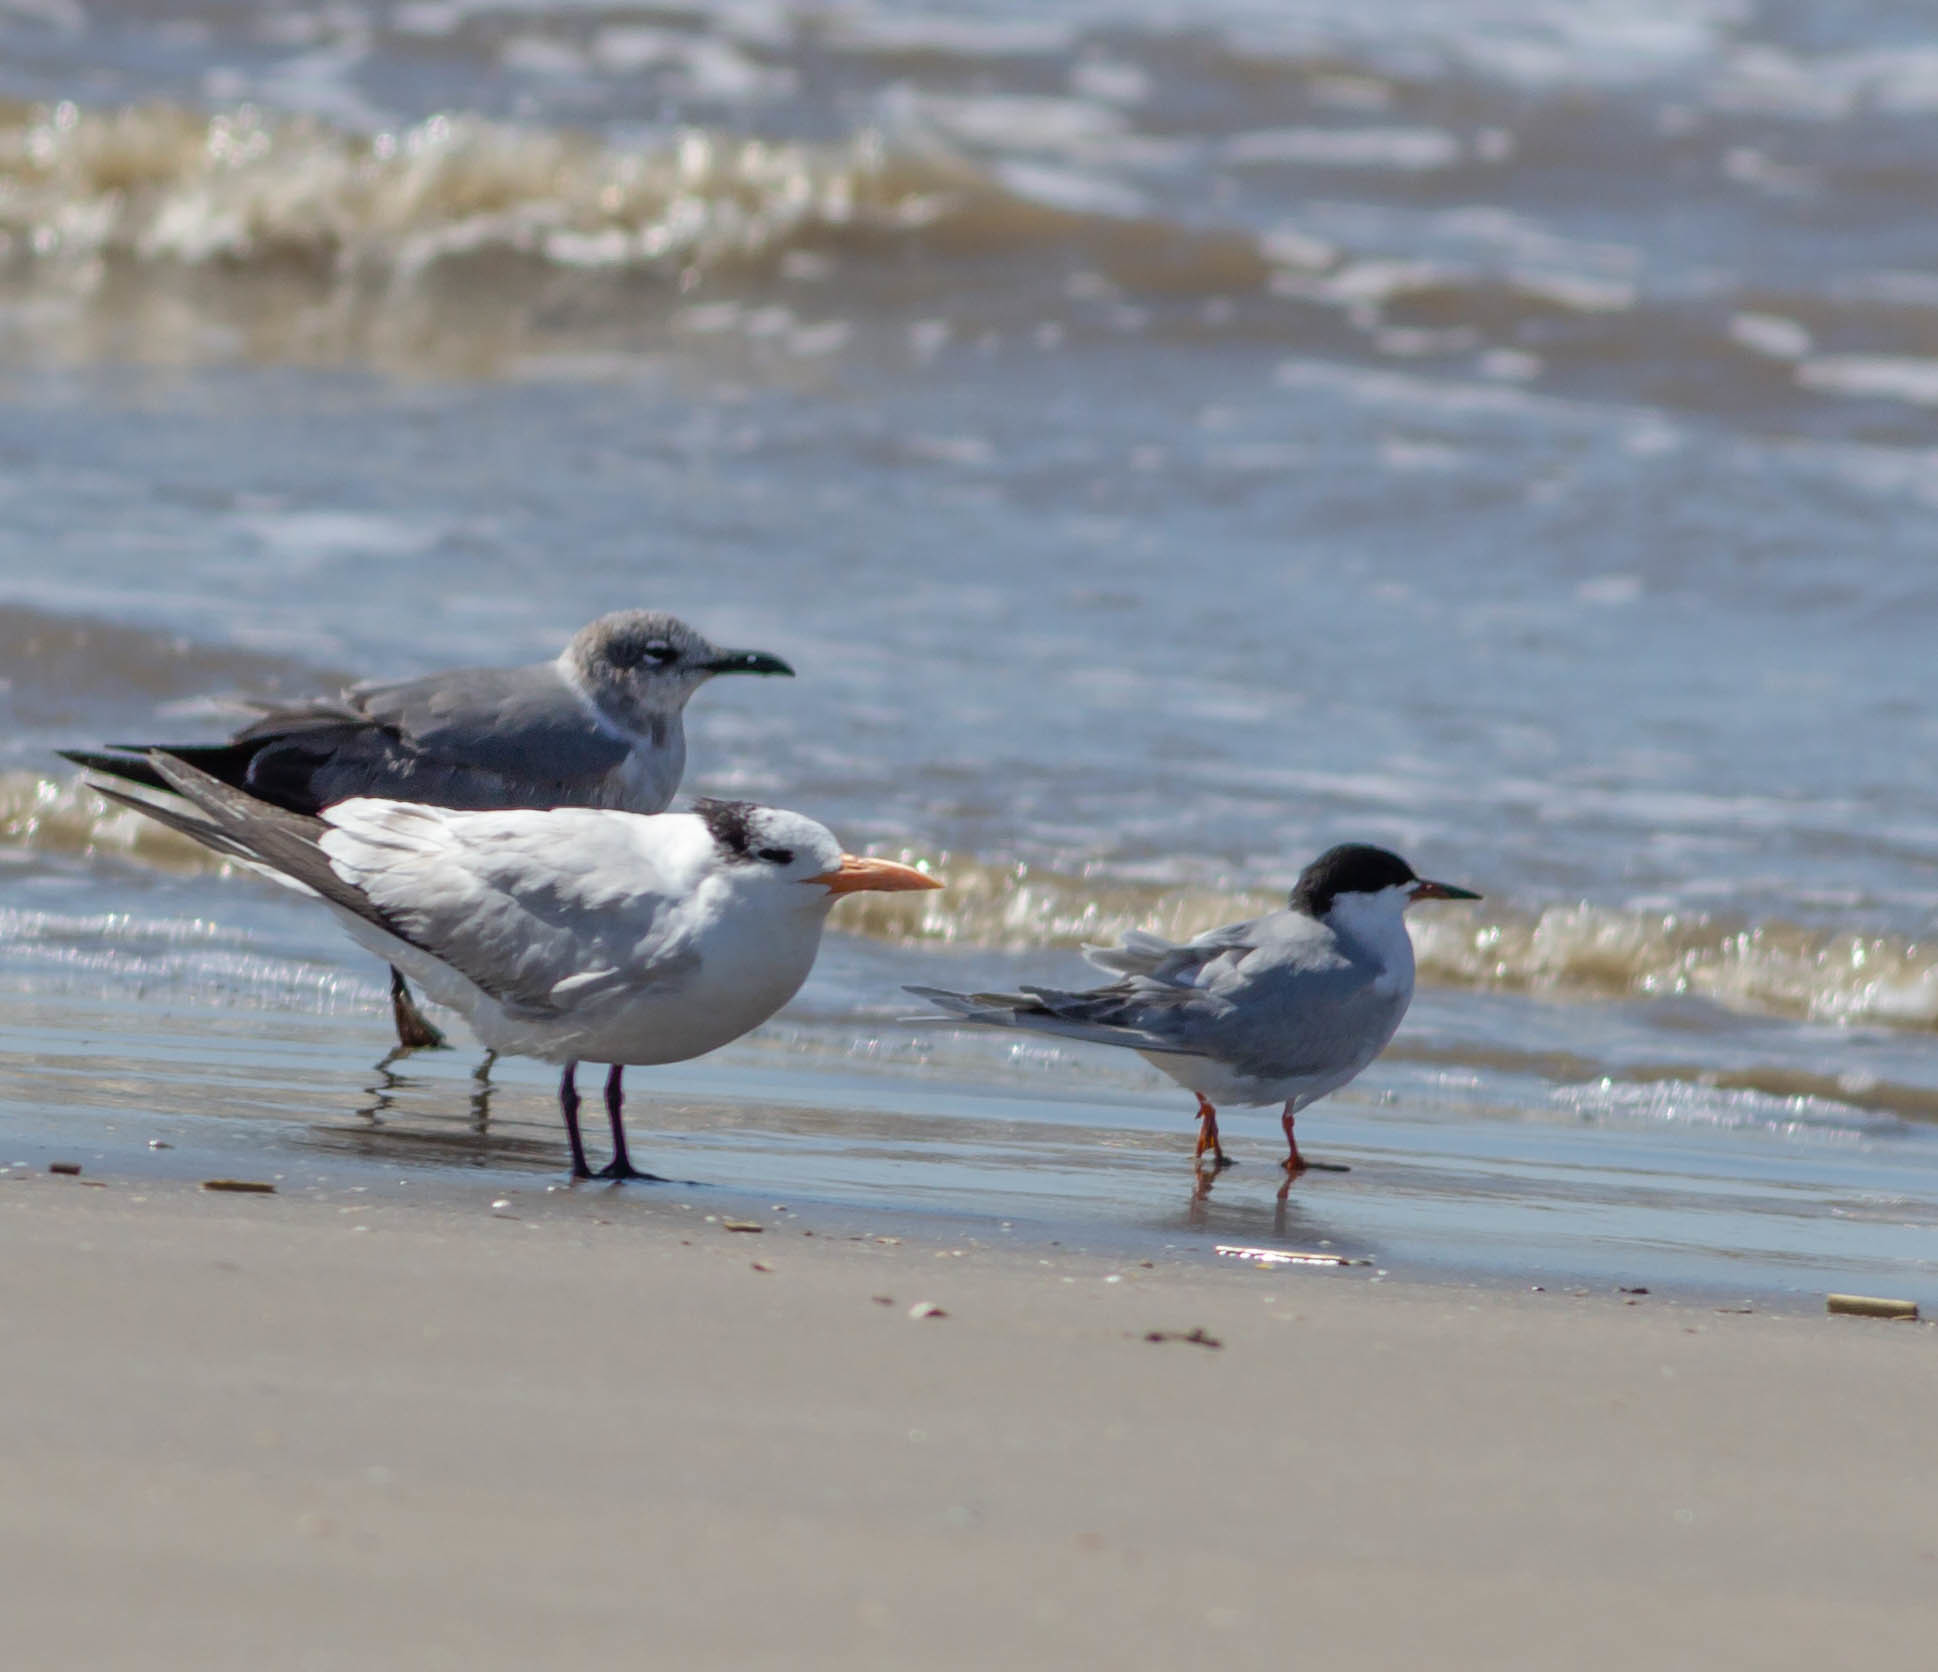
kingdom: Animalia
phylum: Chordata
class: Aves
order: Charadriiformes
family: Laridae
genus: Sterna
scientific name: Sterna forsteri
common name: Forster's tern
